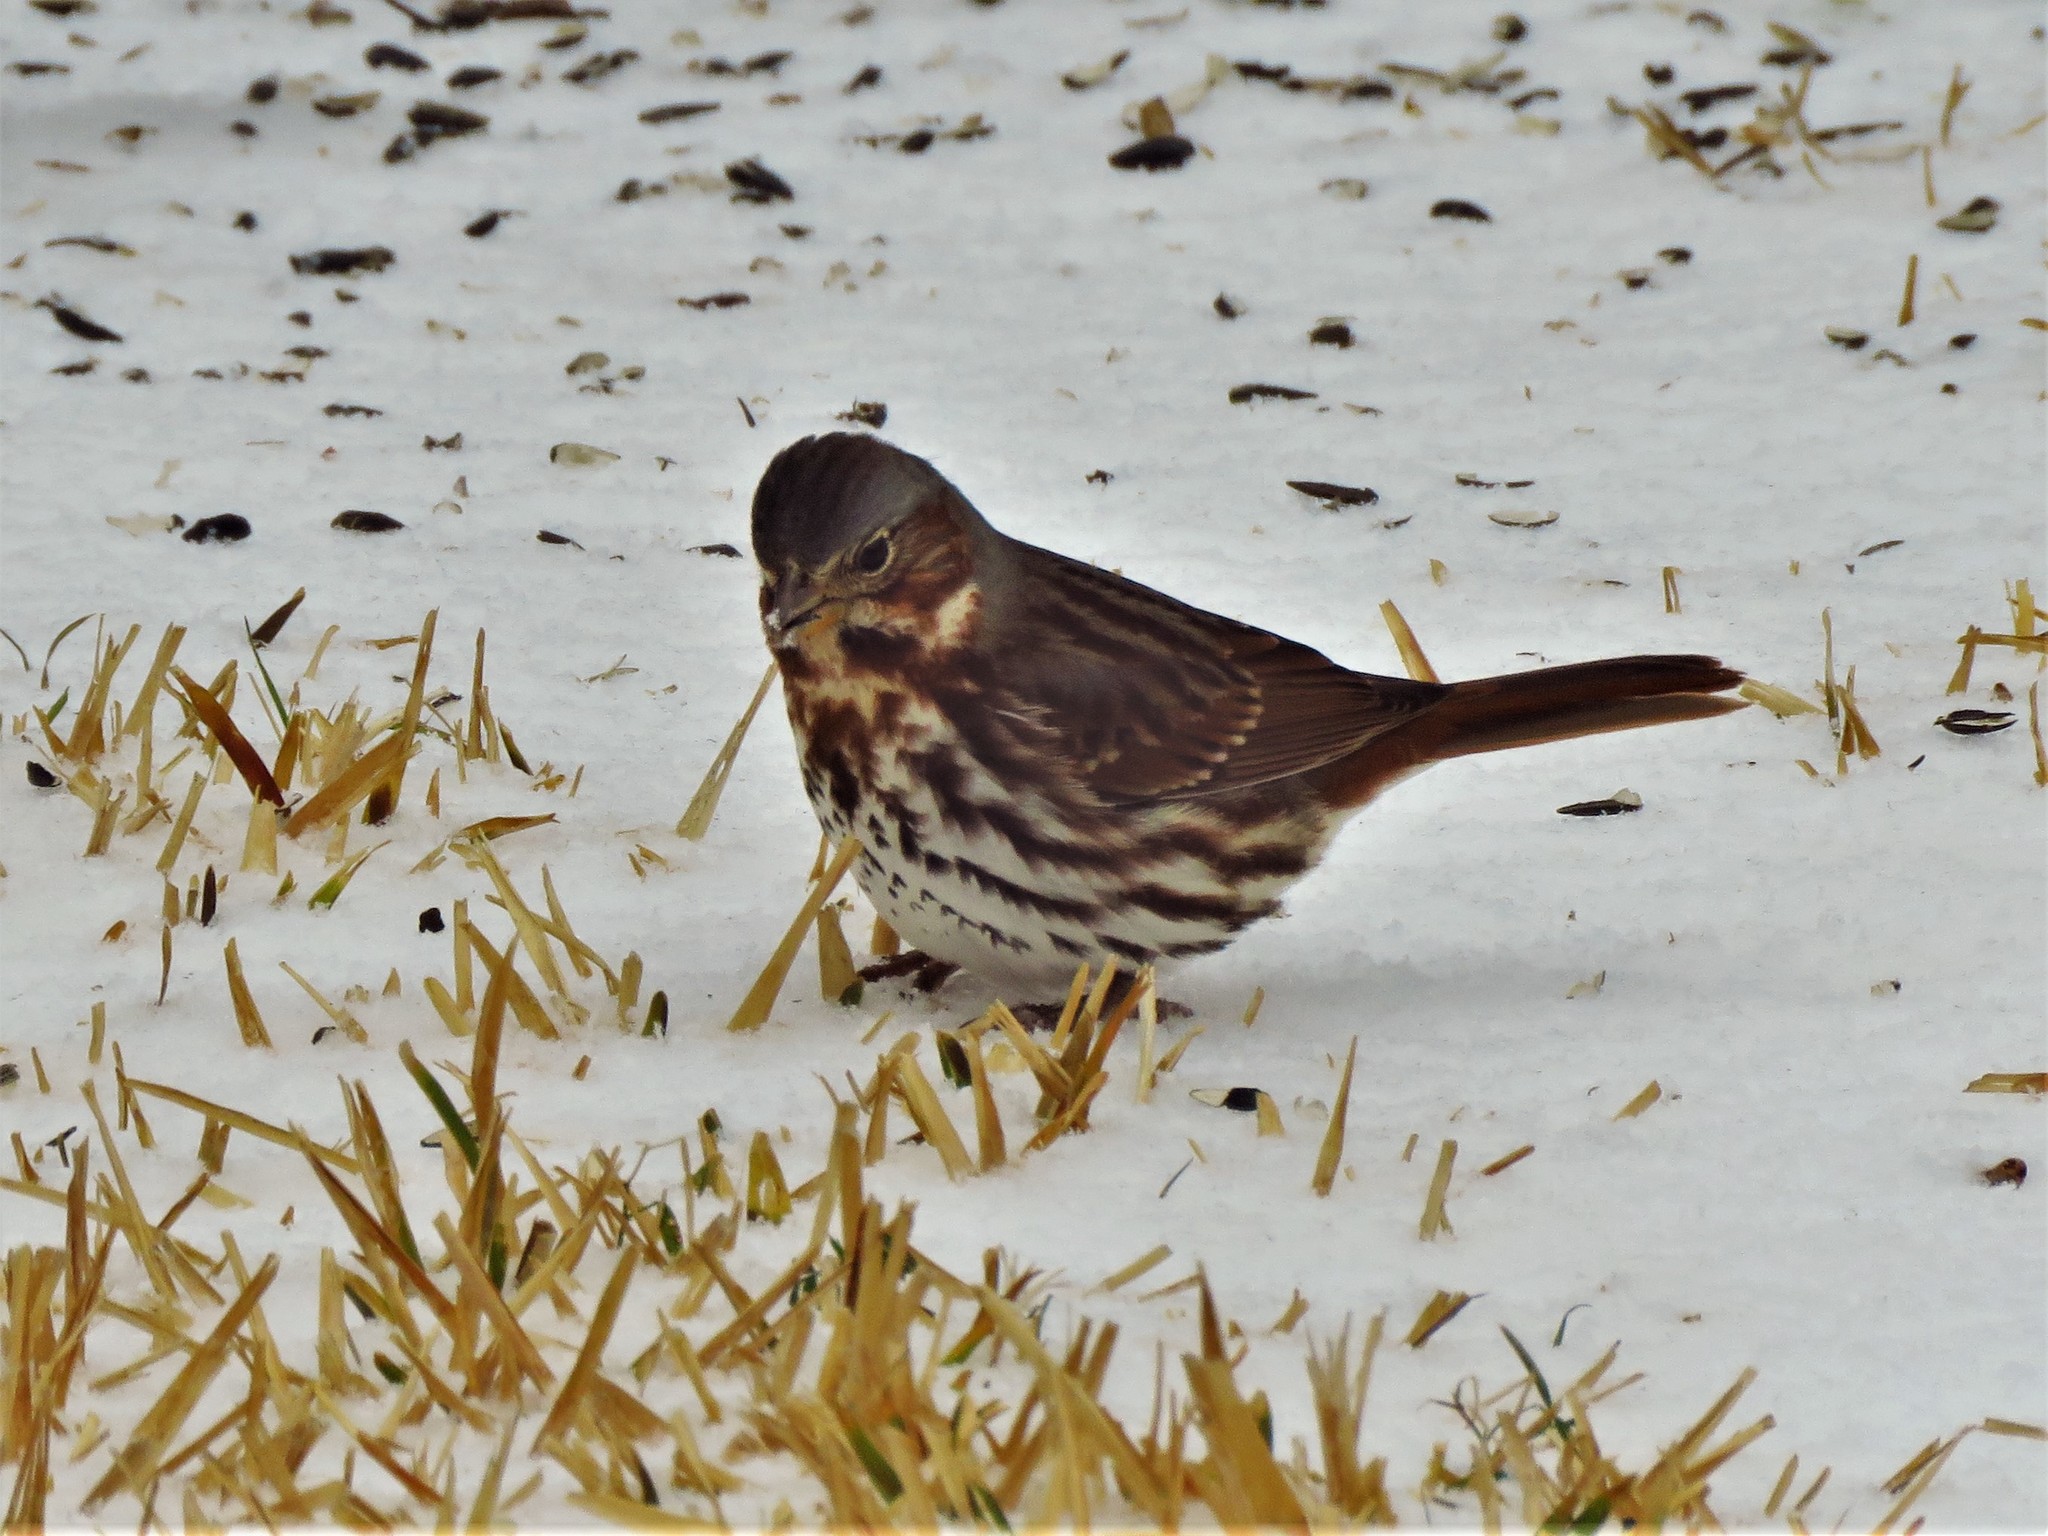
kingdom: Animalia
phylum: Chordata
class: Aves
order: Passeriformes
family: Passerellidae
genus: Passerella
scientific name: Passerella iliaca
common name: Fox sparrow
